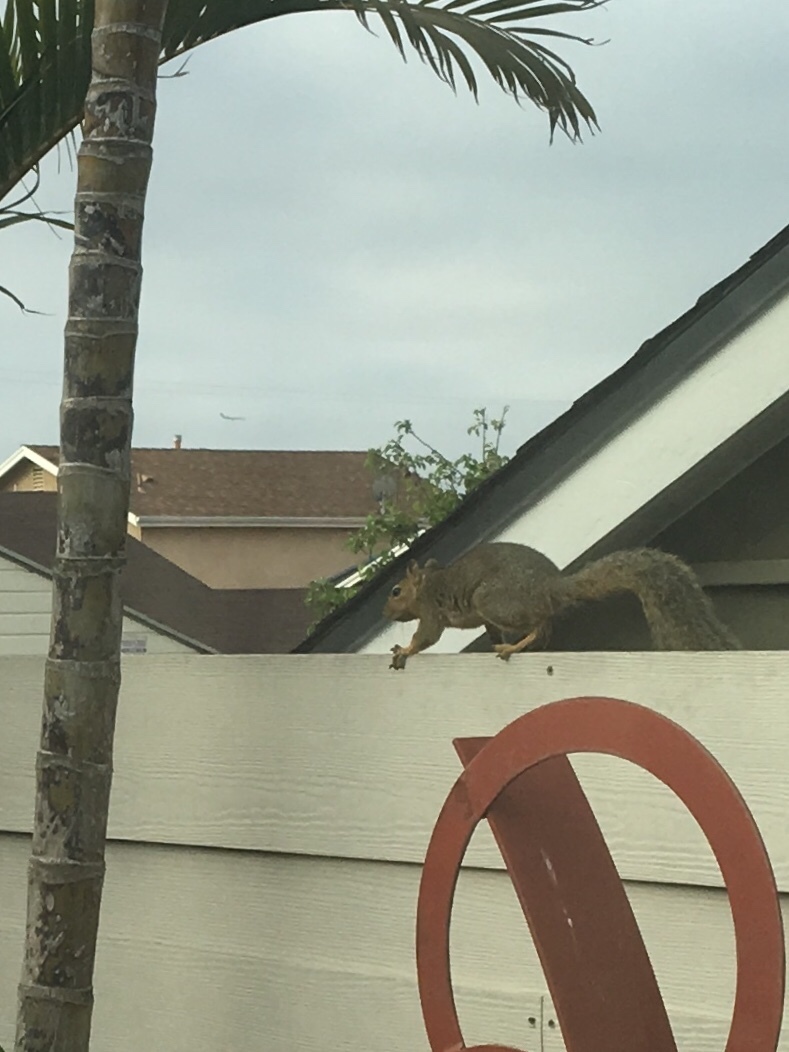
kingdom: Animalia
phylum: Chordata
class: Mammalia
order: Rodentia
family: Sciuridae
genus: Sciurus
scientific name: Sciurus niger
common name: Fox squirrel
